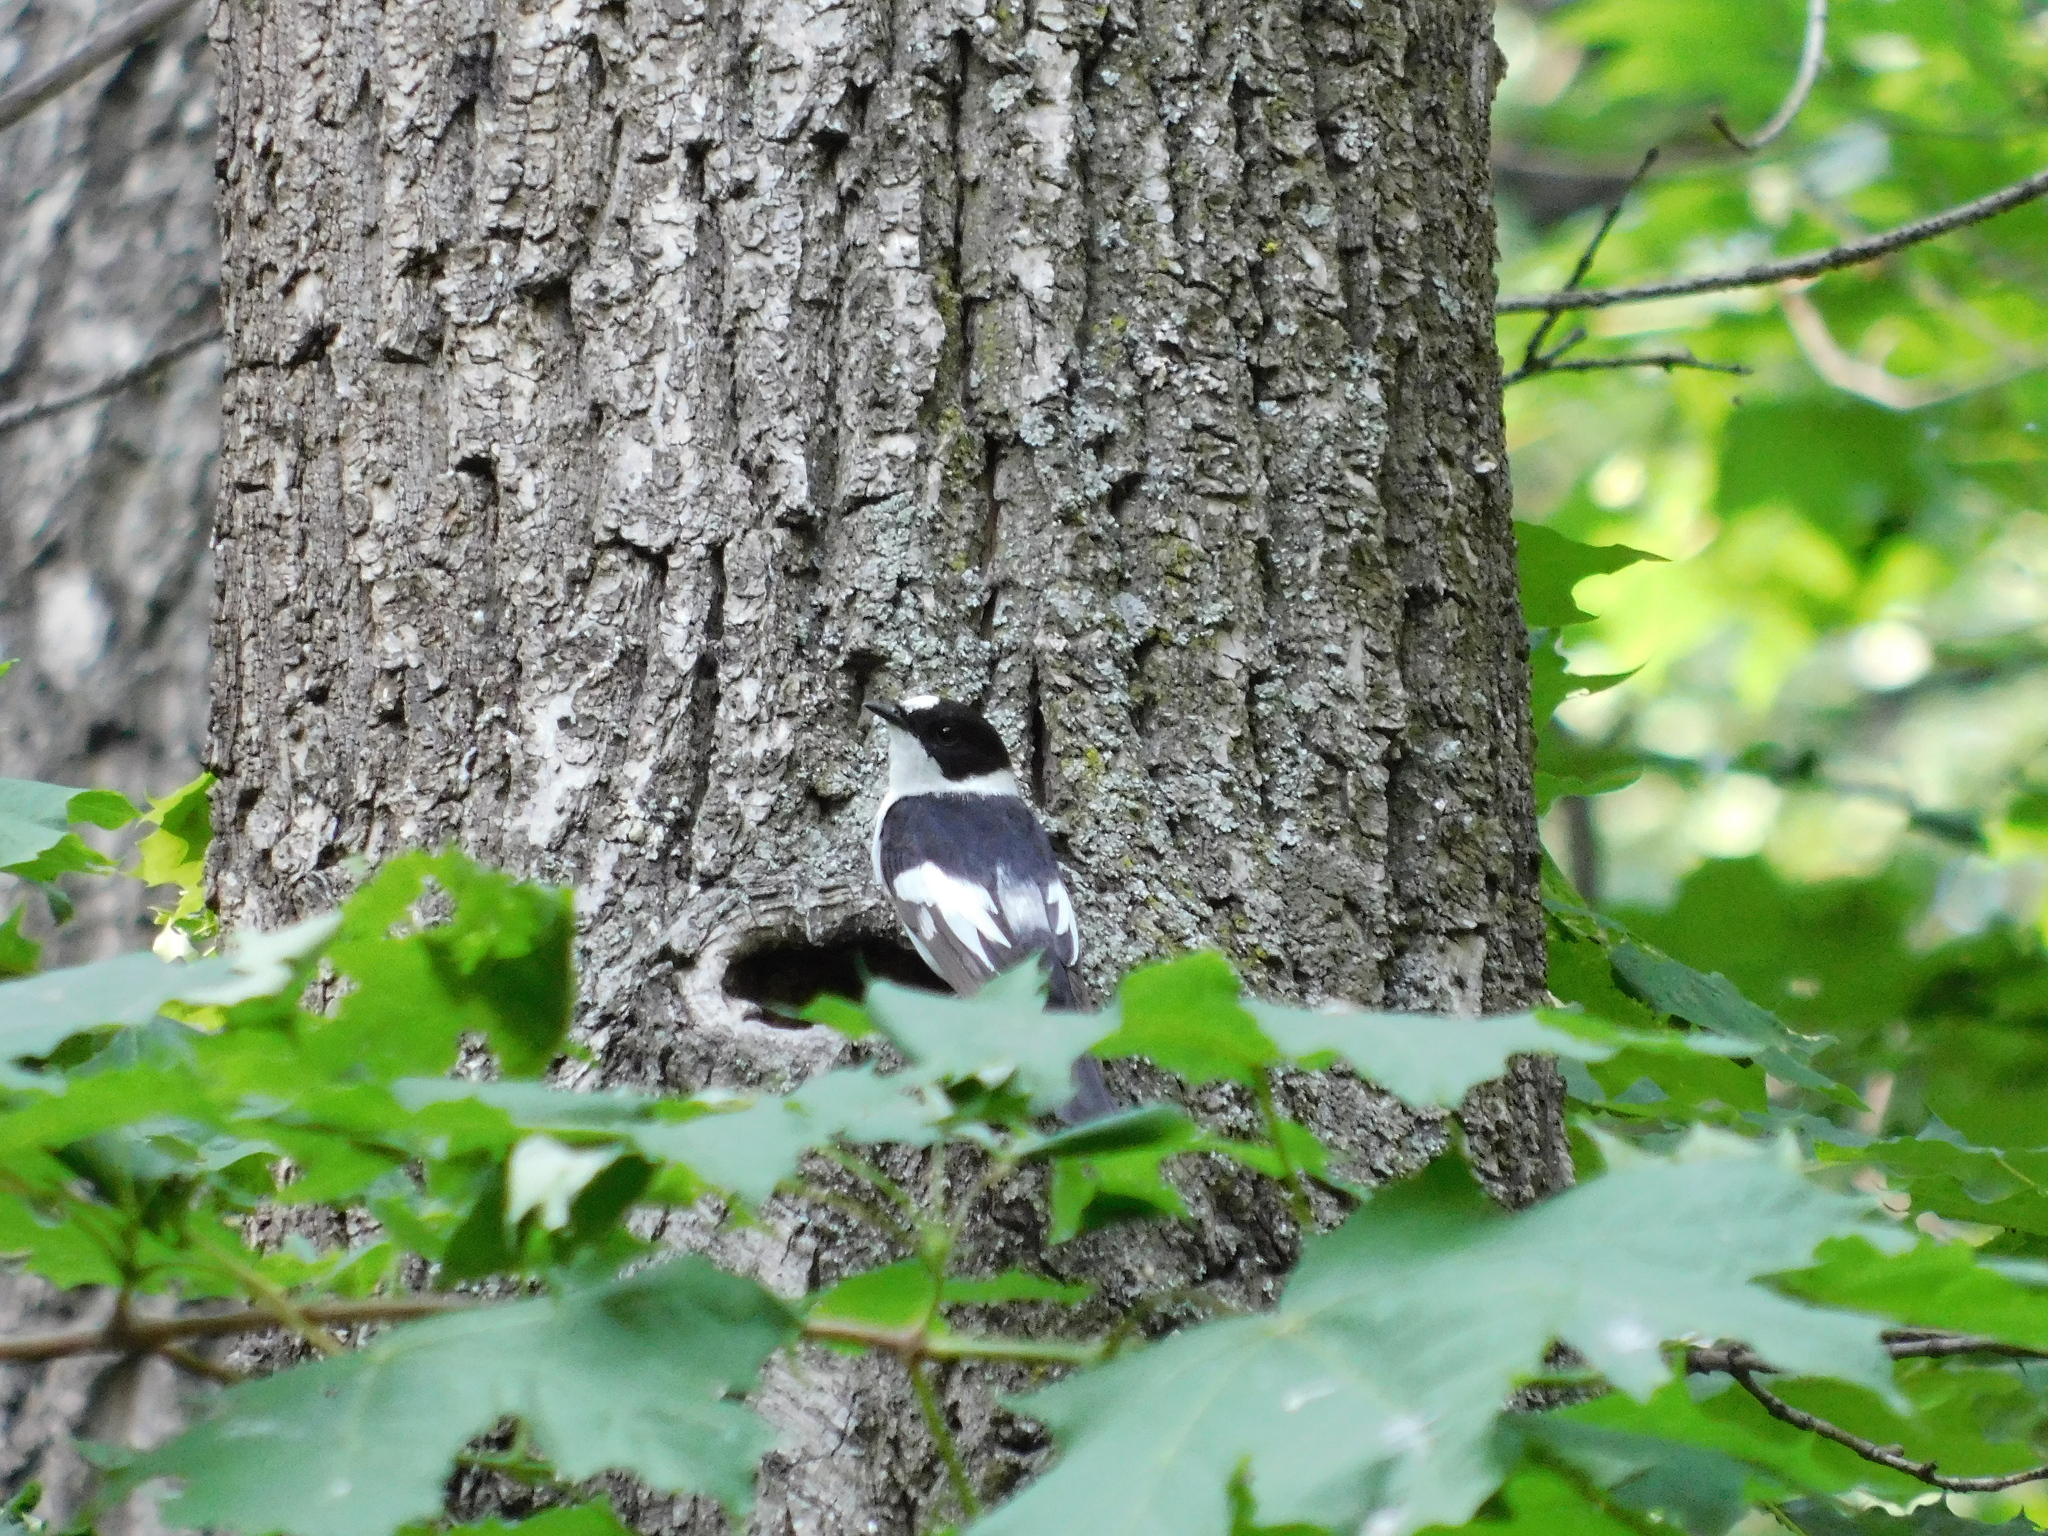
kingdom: Animalia
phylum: Chordata
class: Aves
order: Passeriformes
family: Muscicapidae
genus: Ficedula
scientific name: Ficedula albicollis
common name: Collared flycatcher
